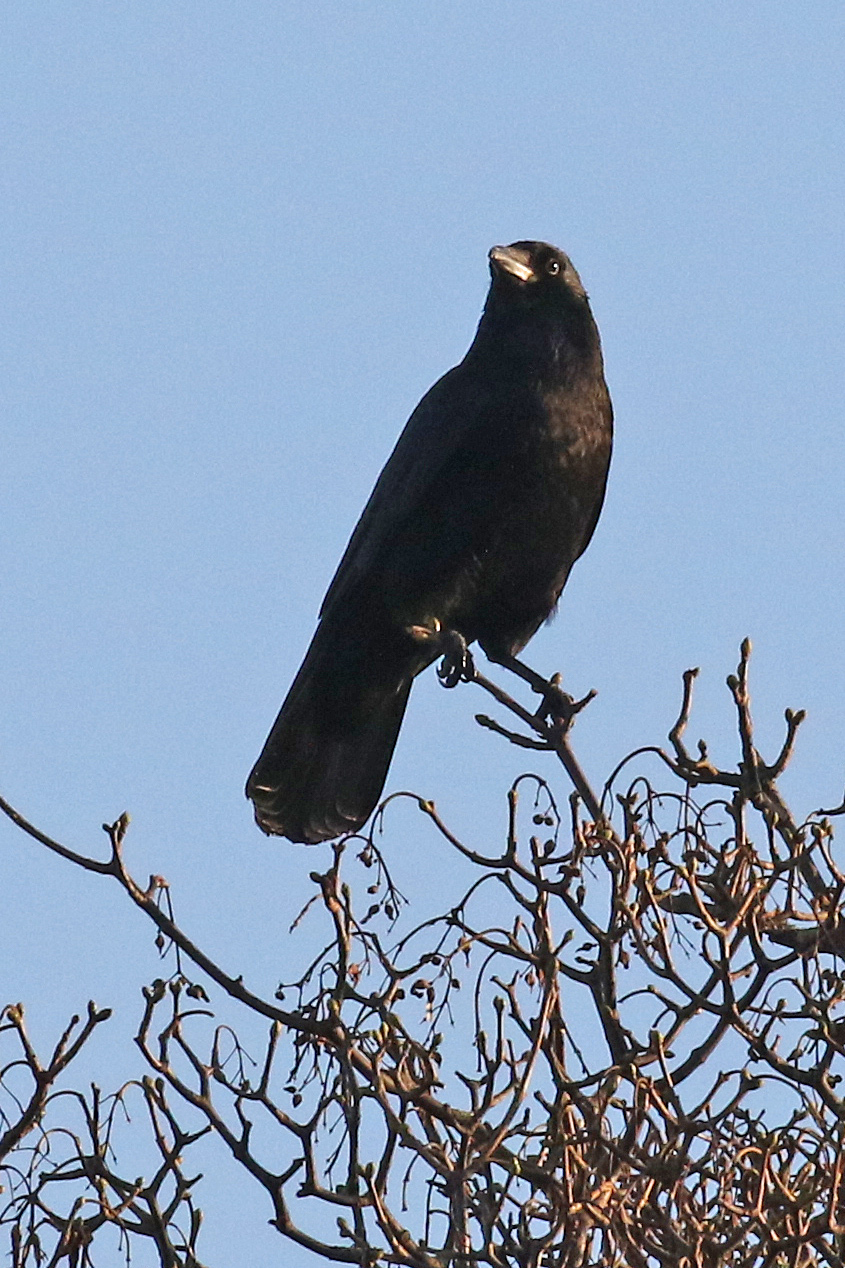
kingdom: Animalia
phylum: Chordata
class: Aves
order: Passeriformes
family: Corvidae
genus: Corvus
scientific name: Corvus corone
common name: Carrion crow
